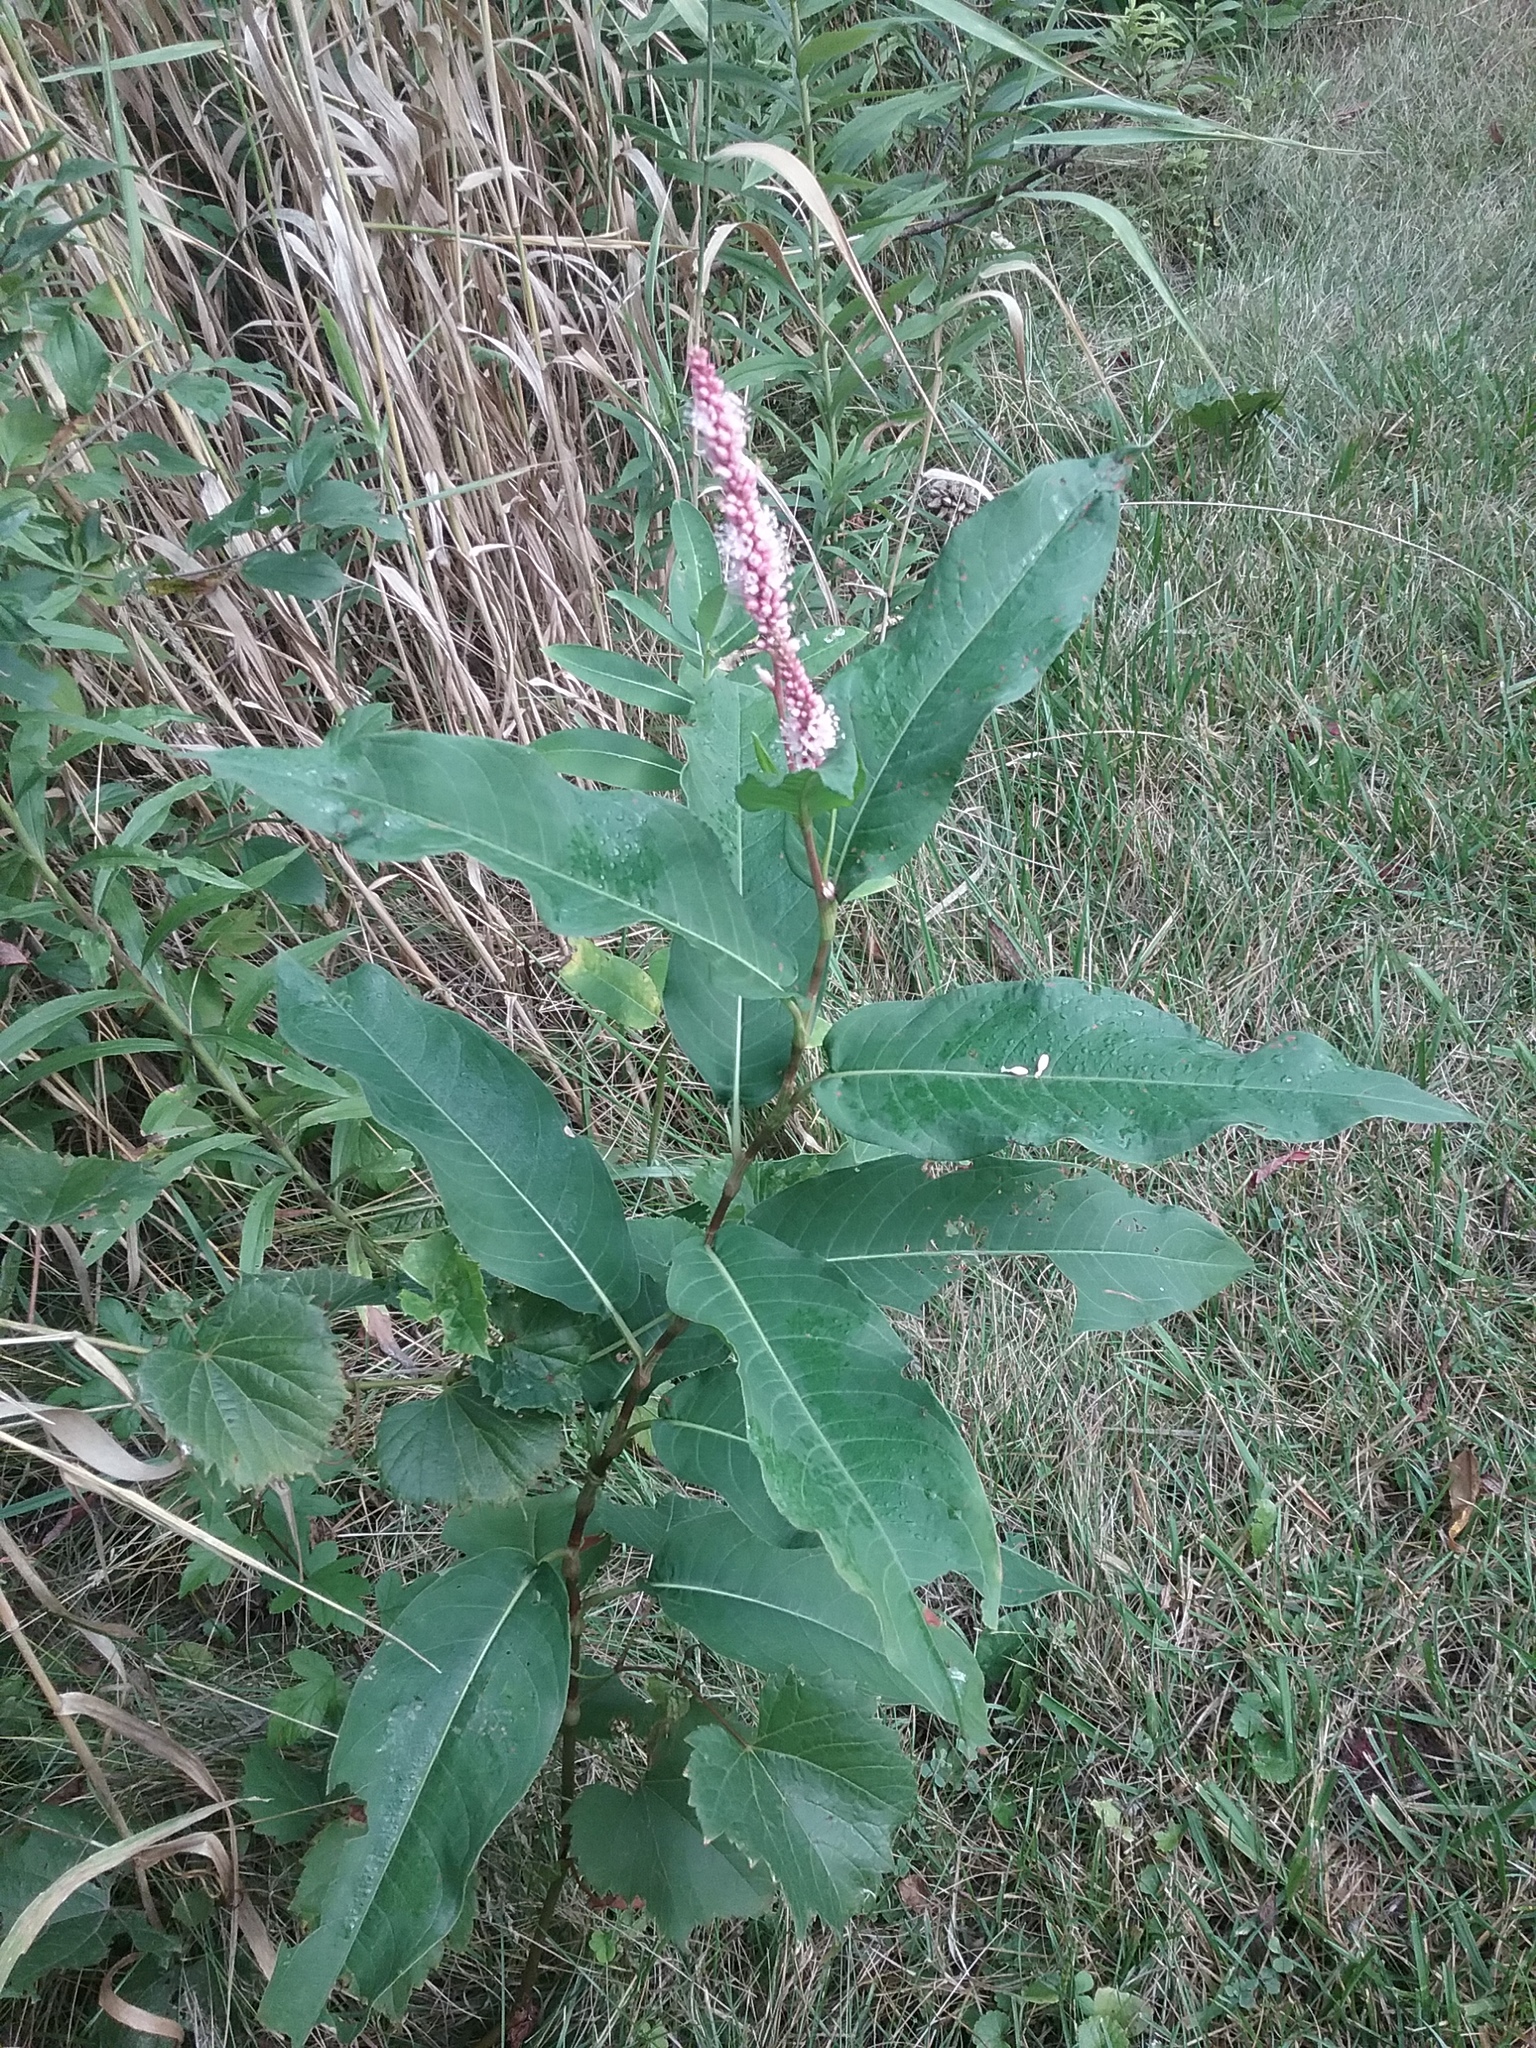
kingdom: Plantae
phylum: Tracheophyta
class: Magnoliopsida
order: Caryophyllales
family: Polygonaceae
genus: Persicaria
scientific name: Persicaria amphibia
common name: Amphibious bistort
